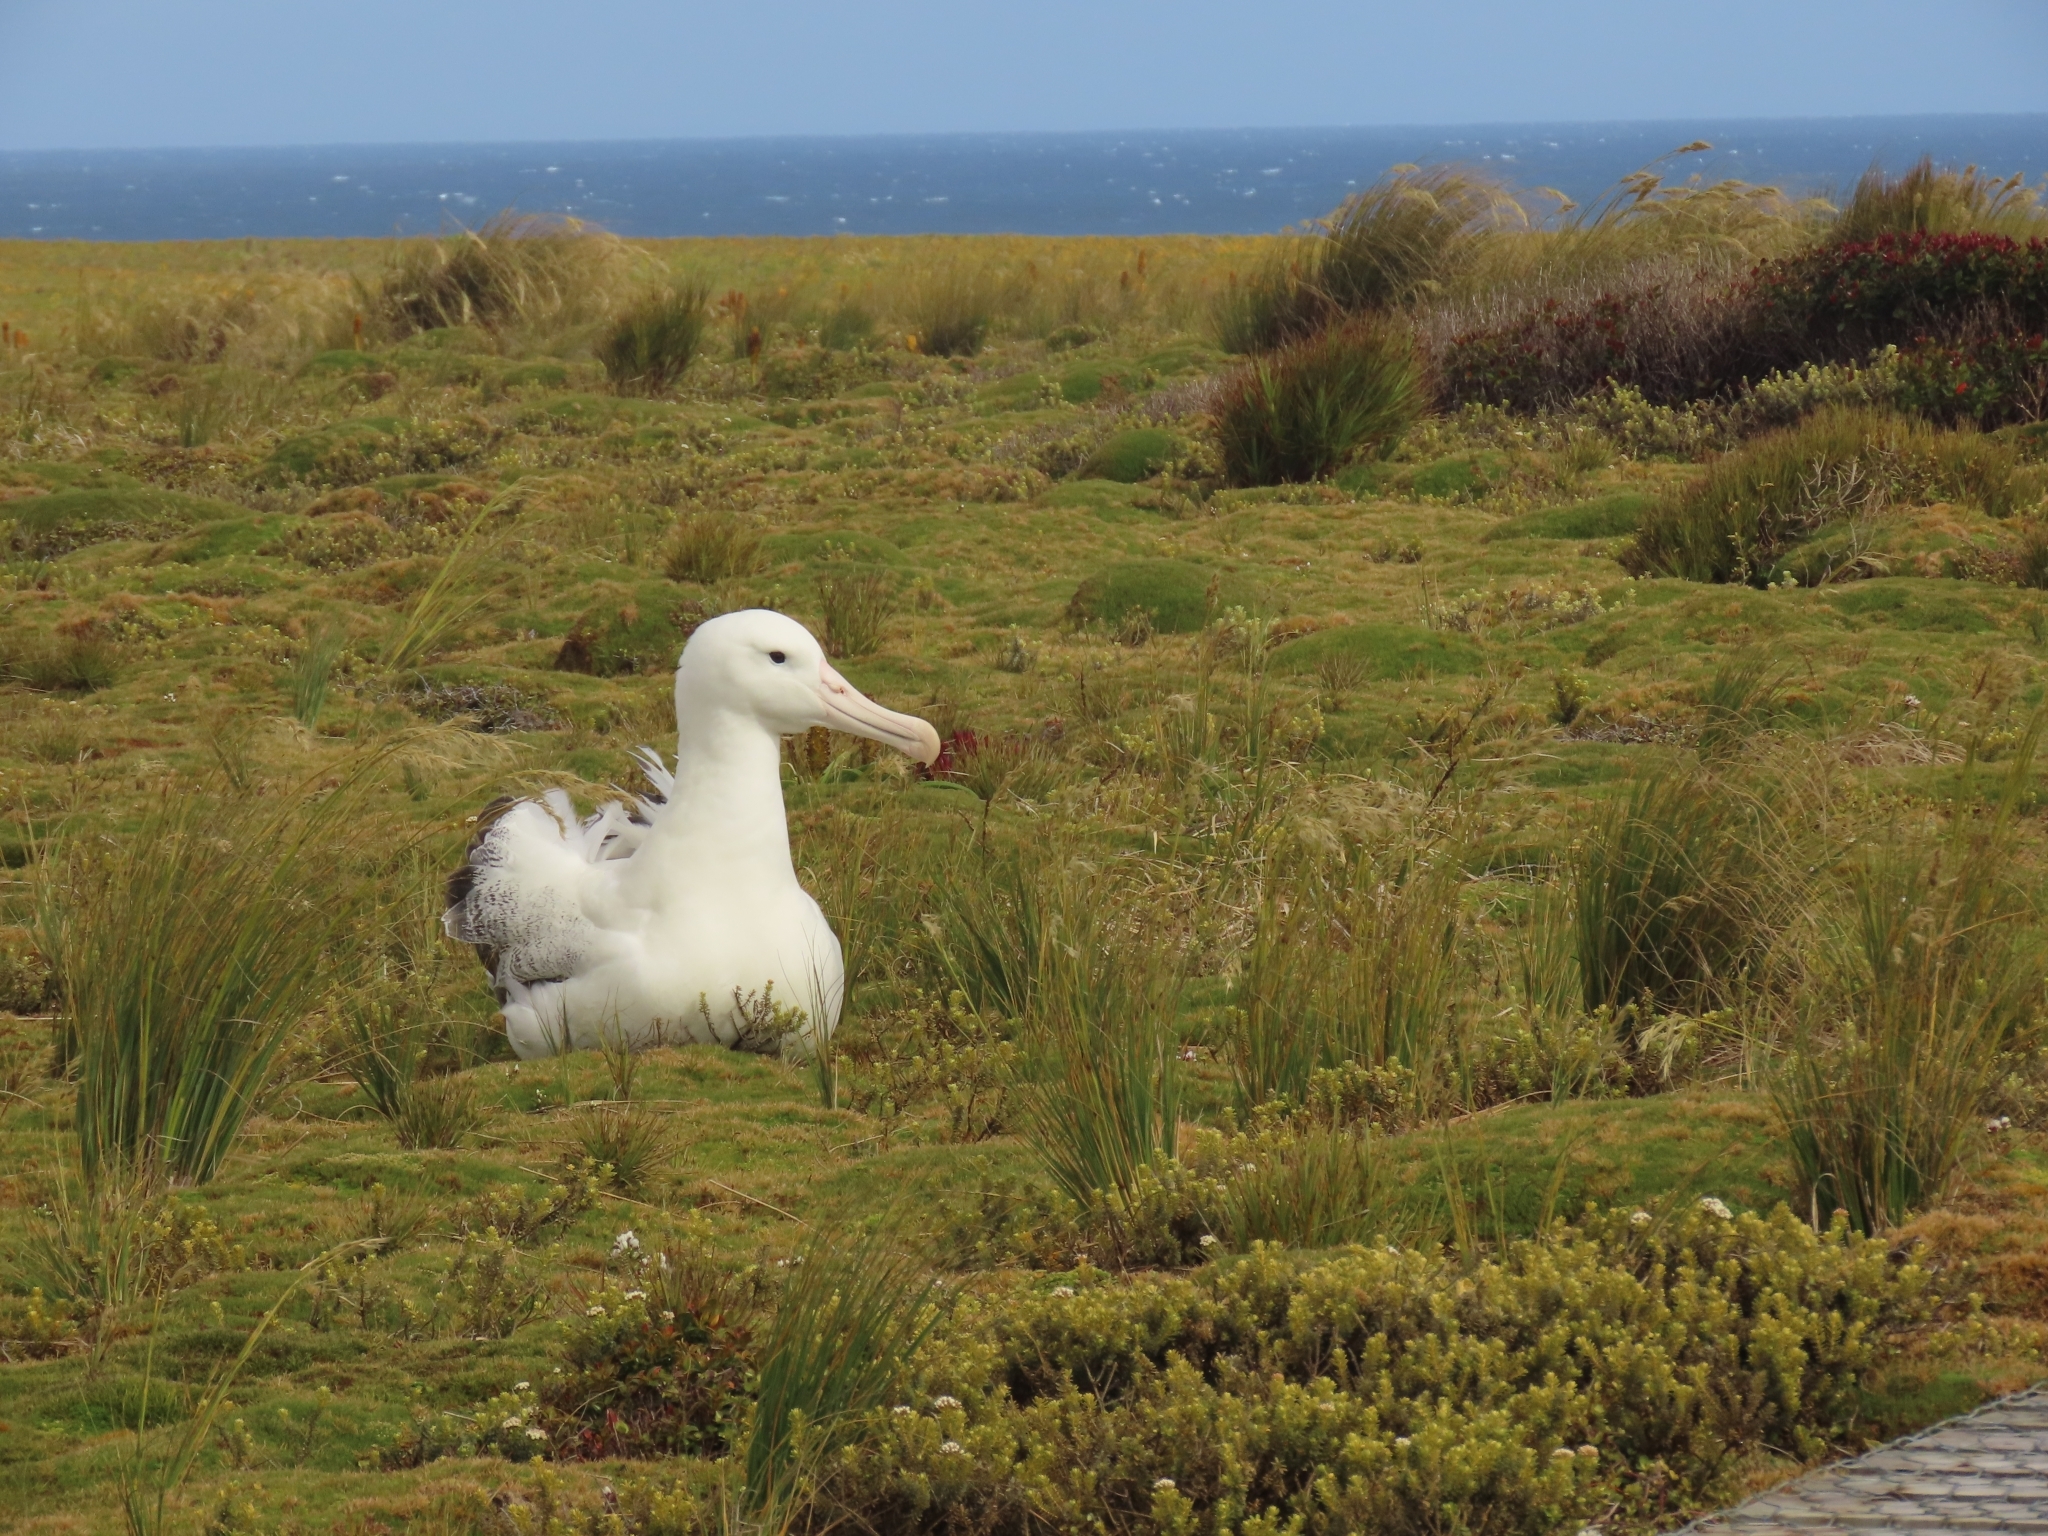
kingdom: Animalia
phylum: Chordata
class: Aves
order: Procellariiformes
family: Diomedeidae
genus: Diomedea
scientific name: Diomedea epomophora
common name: Southern royal albatross
